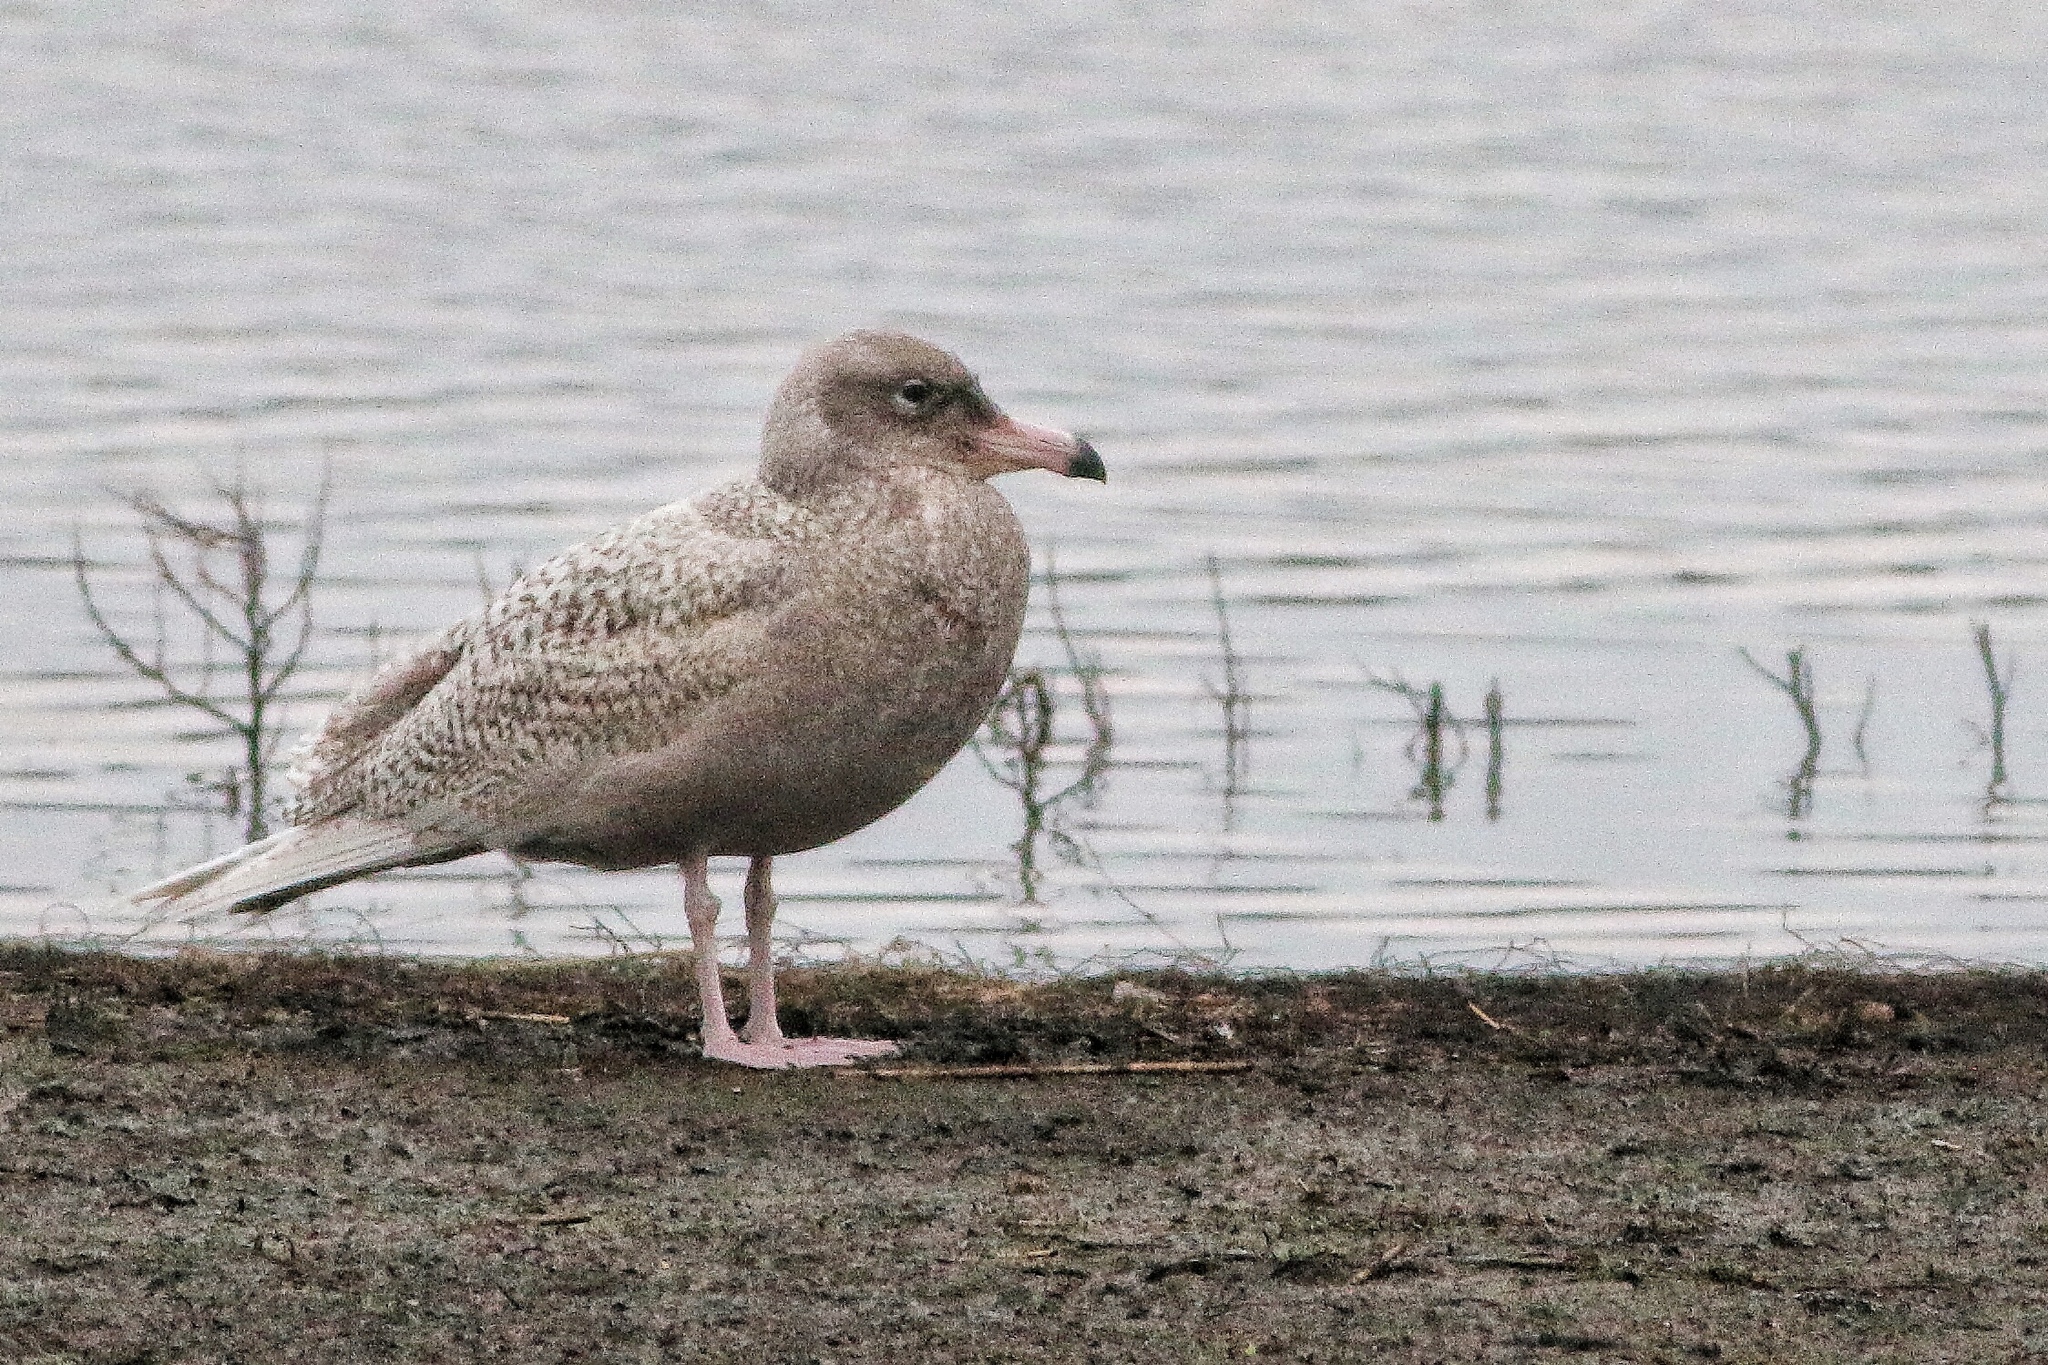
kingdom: Animalia
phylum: Chordata
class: Aves
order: Charadriiformes
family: Laridae
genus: Larus
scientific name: Larus hyperboreus
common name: Glaucous gull
